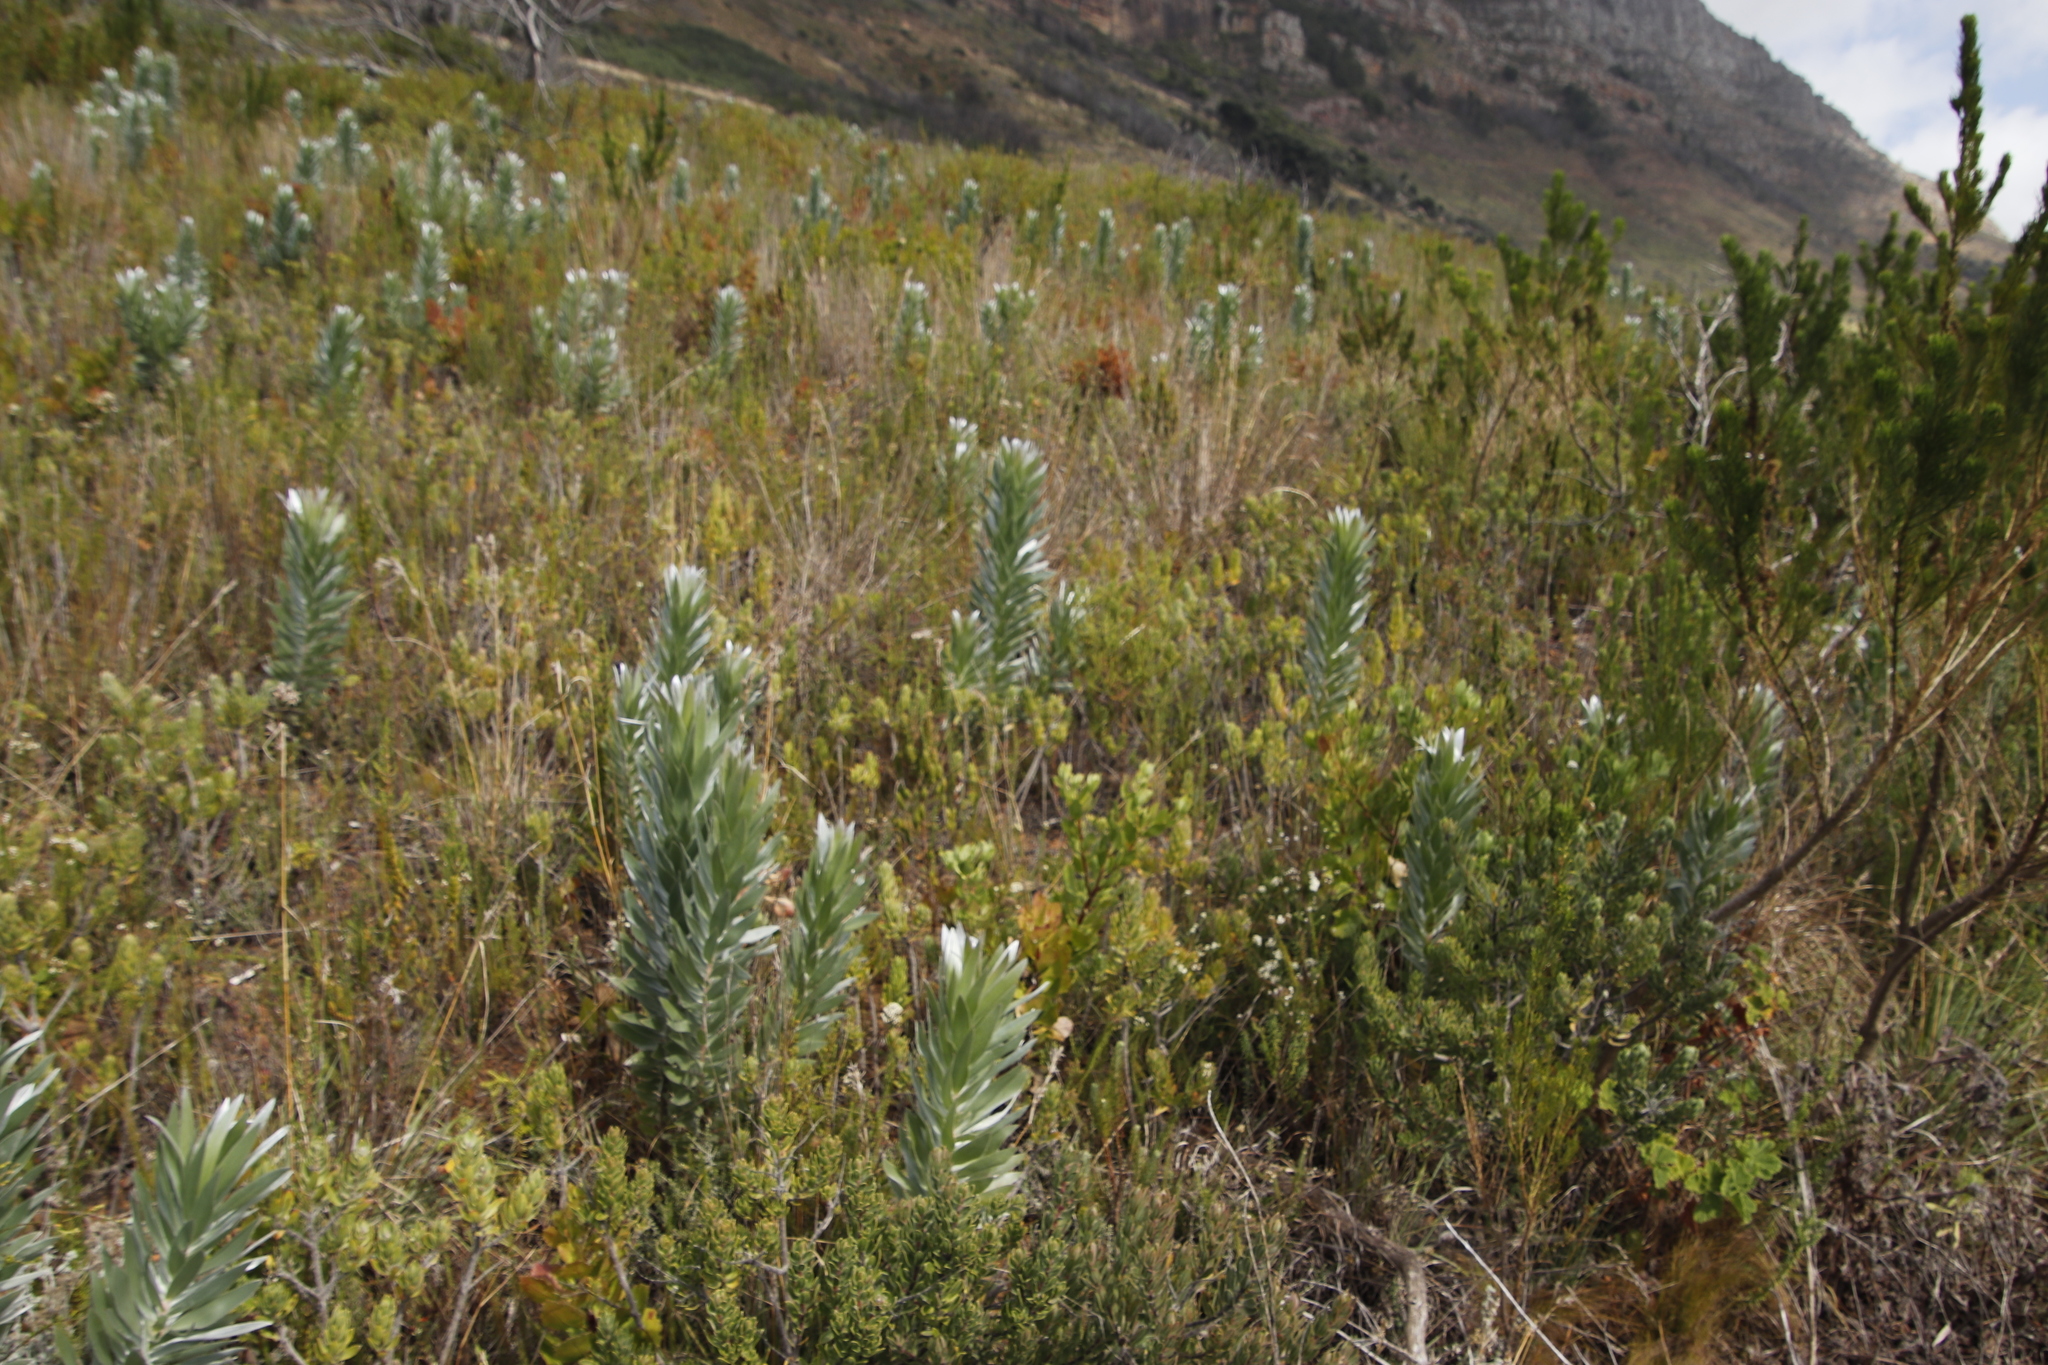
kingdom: Plantae
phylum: Tracheophyta
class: Magnoliopsida
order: Proteales
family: Proteaceae
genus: Leucadendron
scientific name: Leucadendron argenteum
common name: Cape silver tree
